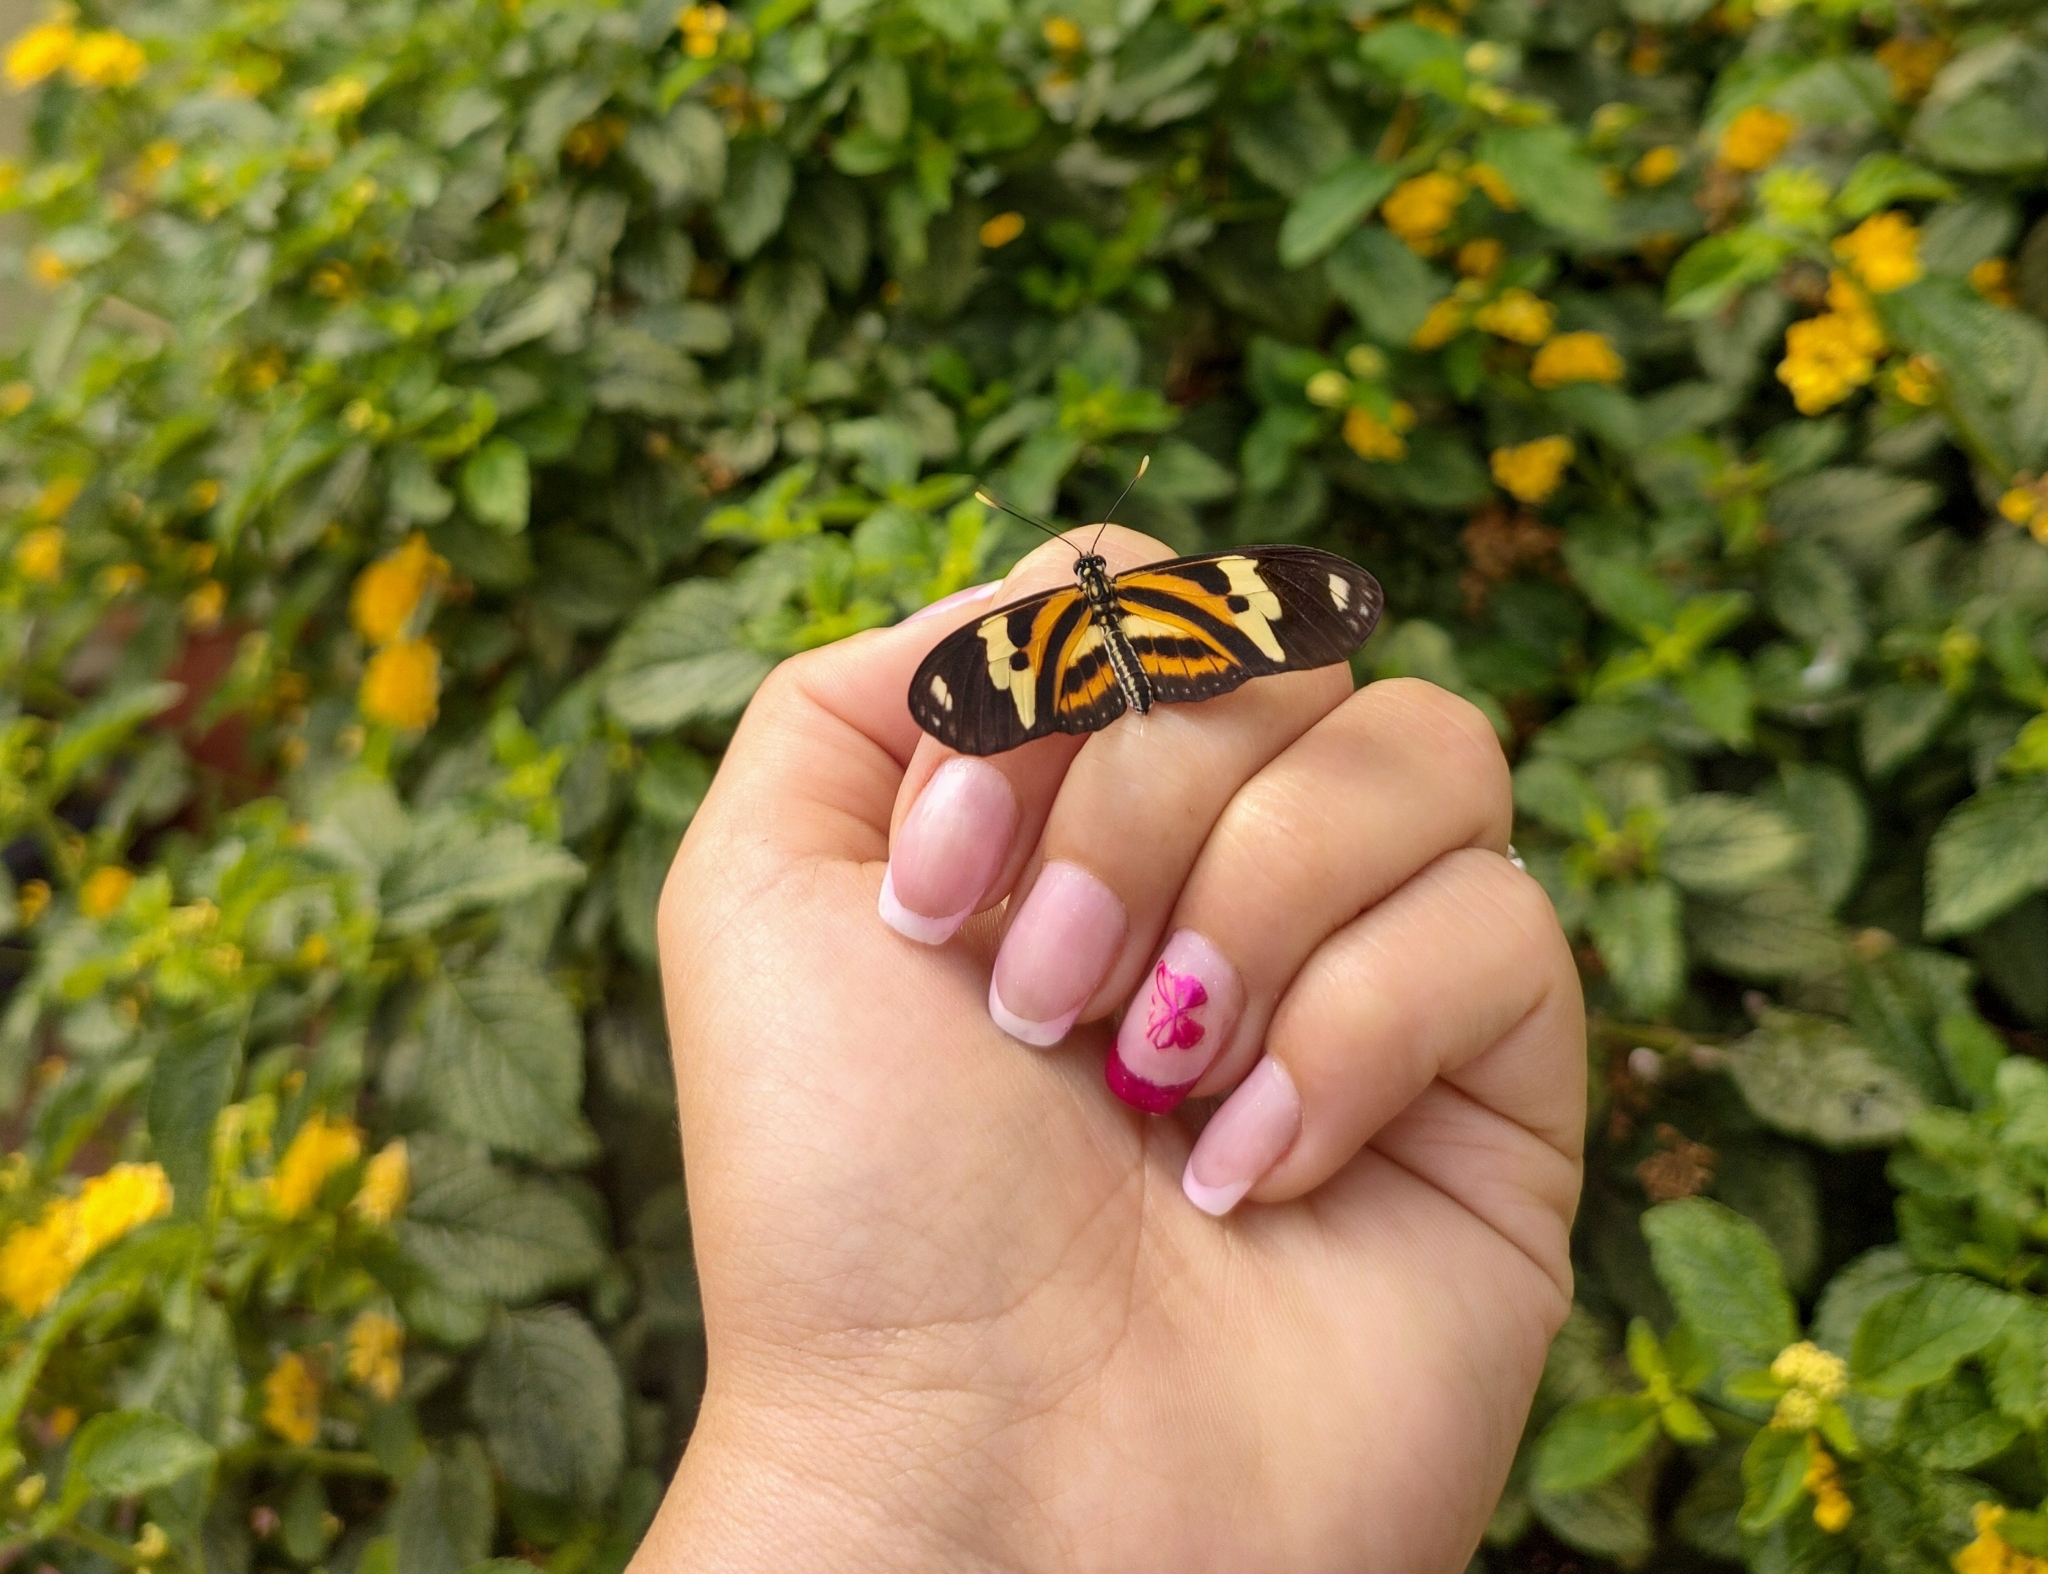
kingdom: Animalia
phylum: Arthropoda
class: Insecta
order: Lepidoptera
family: Nymphalidae
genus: Eueides
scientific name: Eueides isabella
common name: Isabella's longwing
